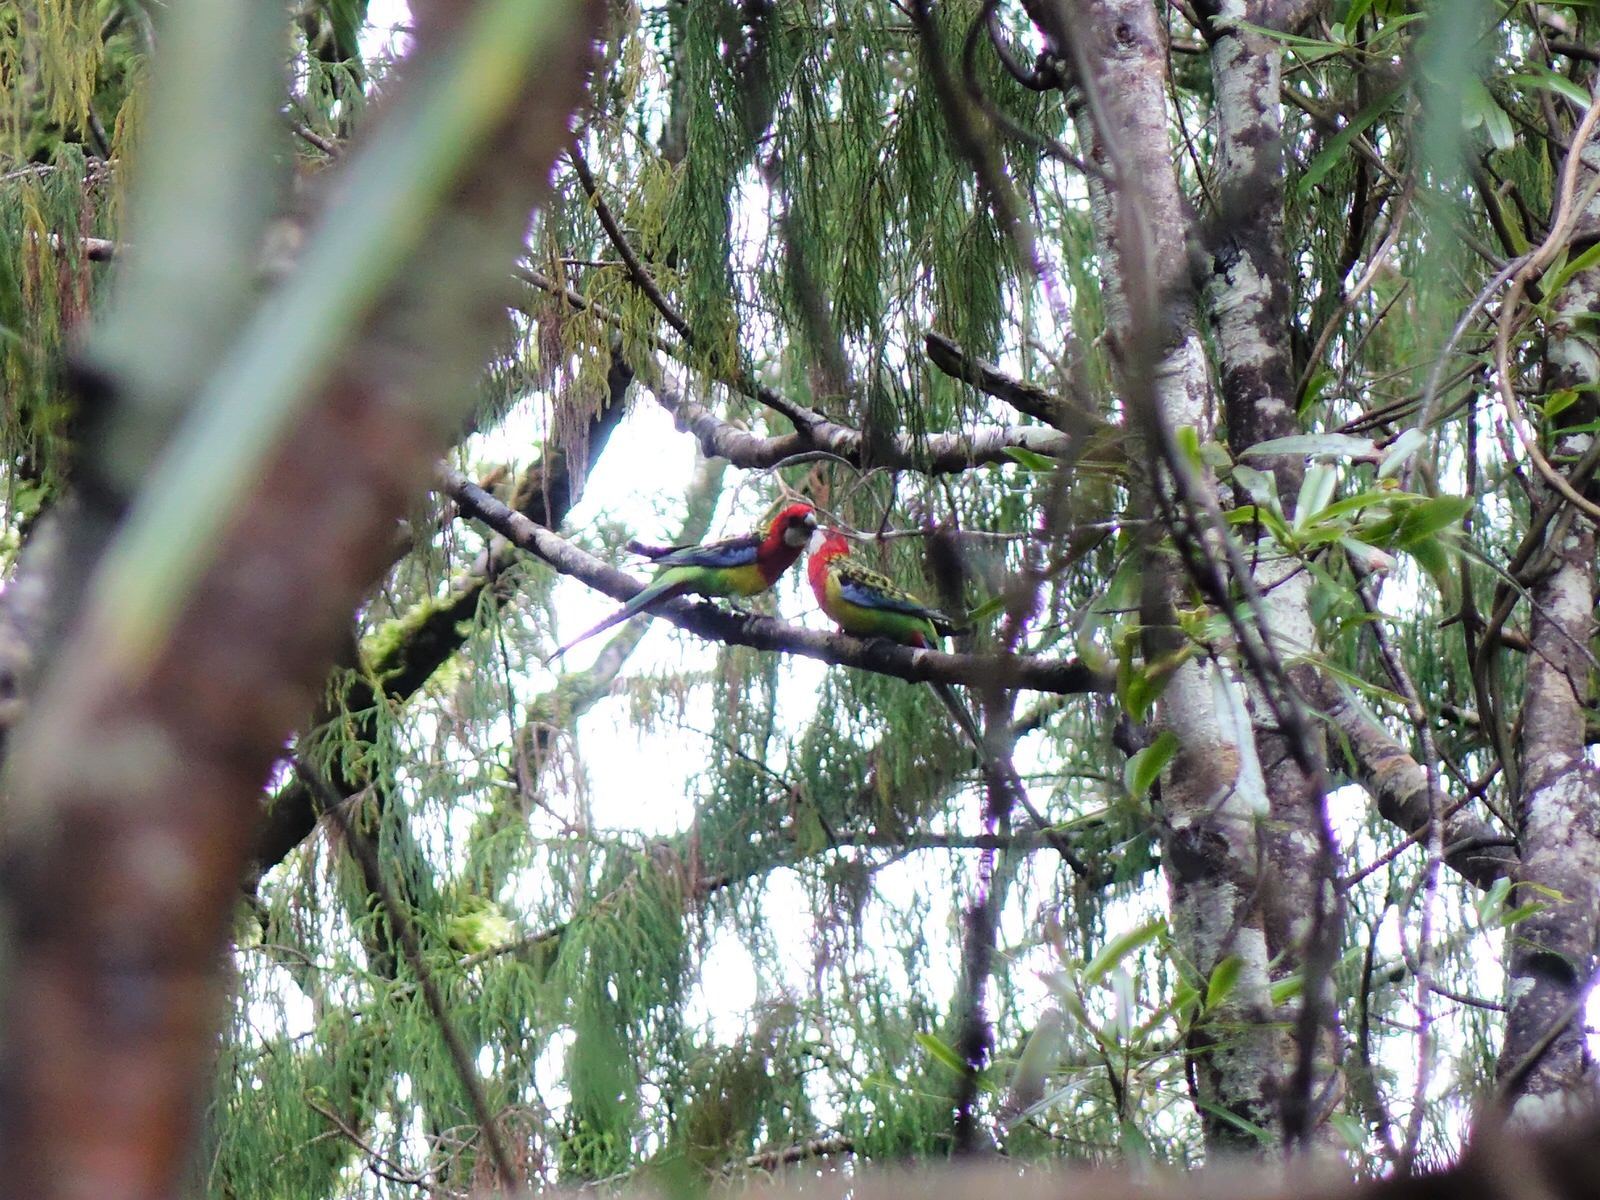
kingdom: Animalia
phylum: Chordata
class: Aves
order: Psittaciformes
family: Psittacidae
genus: Platycercus
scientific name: Platycercus eximius
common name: Eastern rosella
